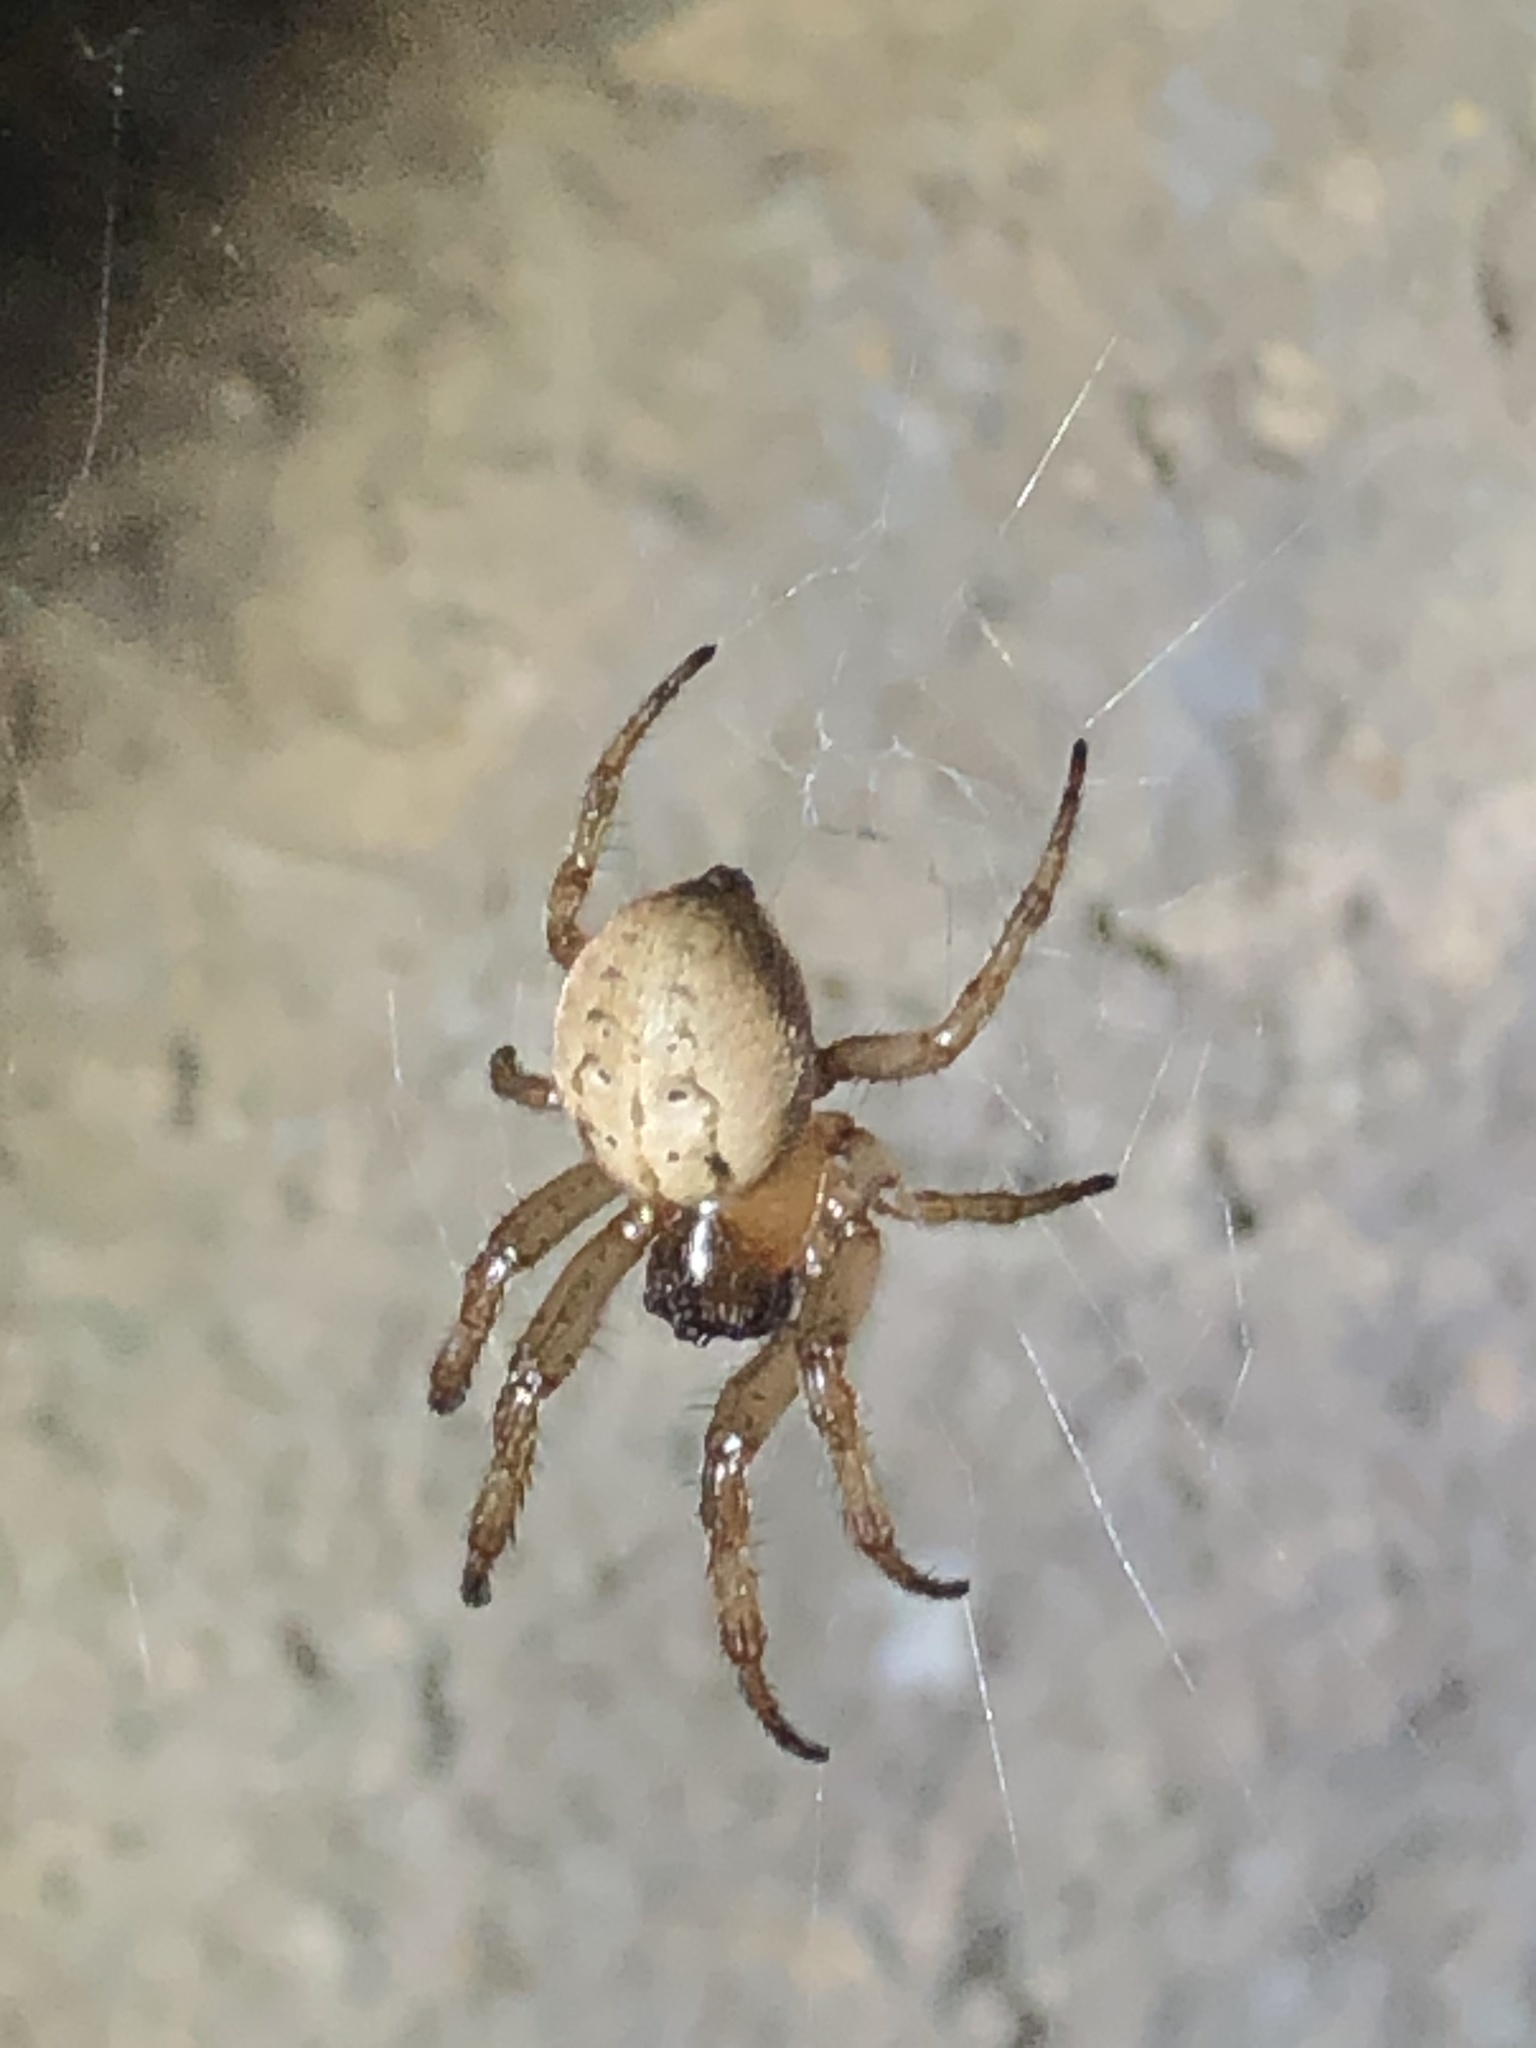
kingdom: Animalia
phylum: Arthropoda
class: Arachnida
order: Araneae
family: Araneidae
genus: Metazygia
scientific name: Metazygia wittfeldae
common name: Orb weavers
